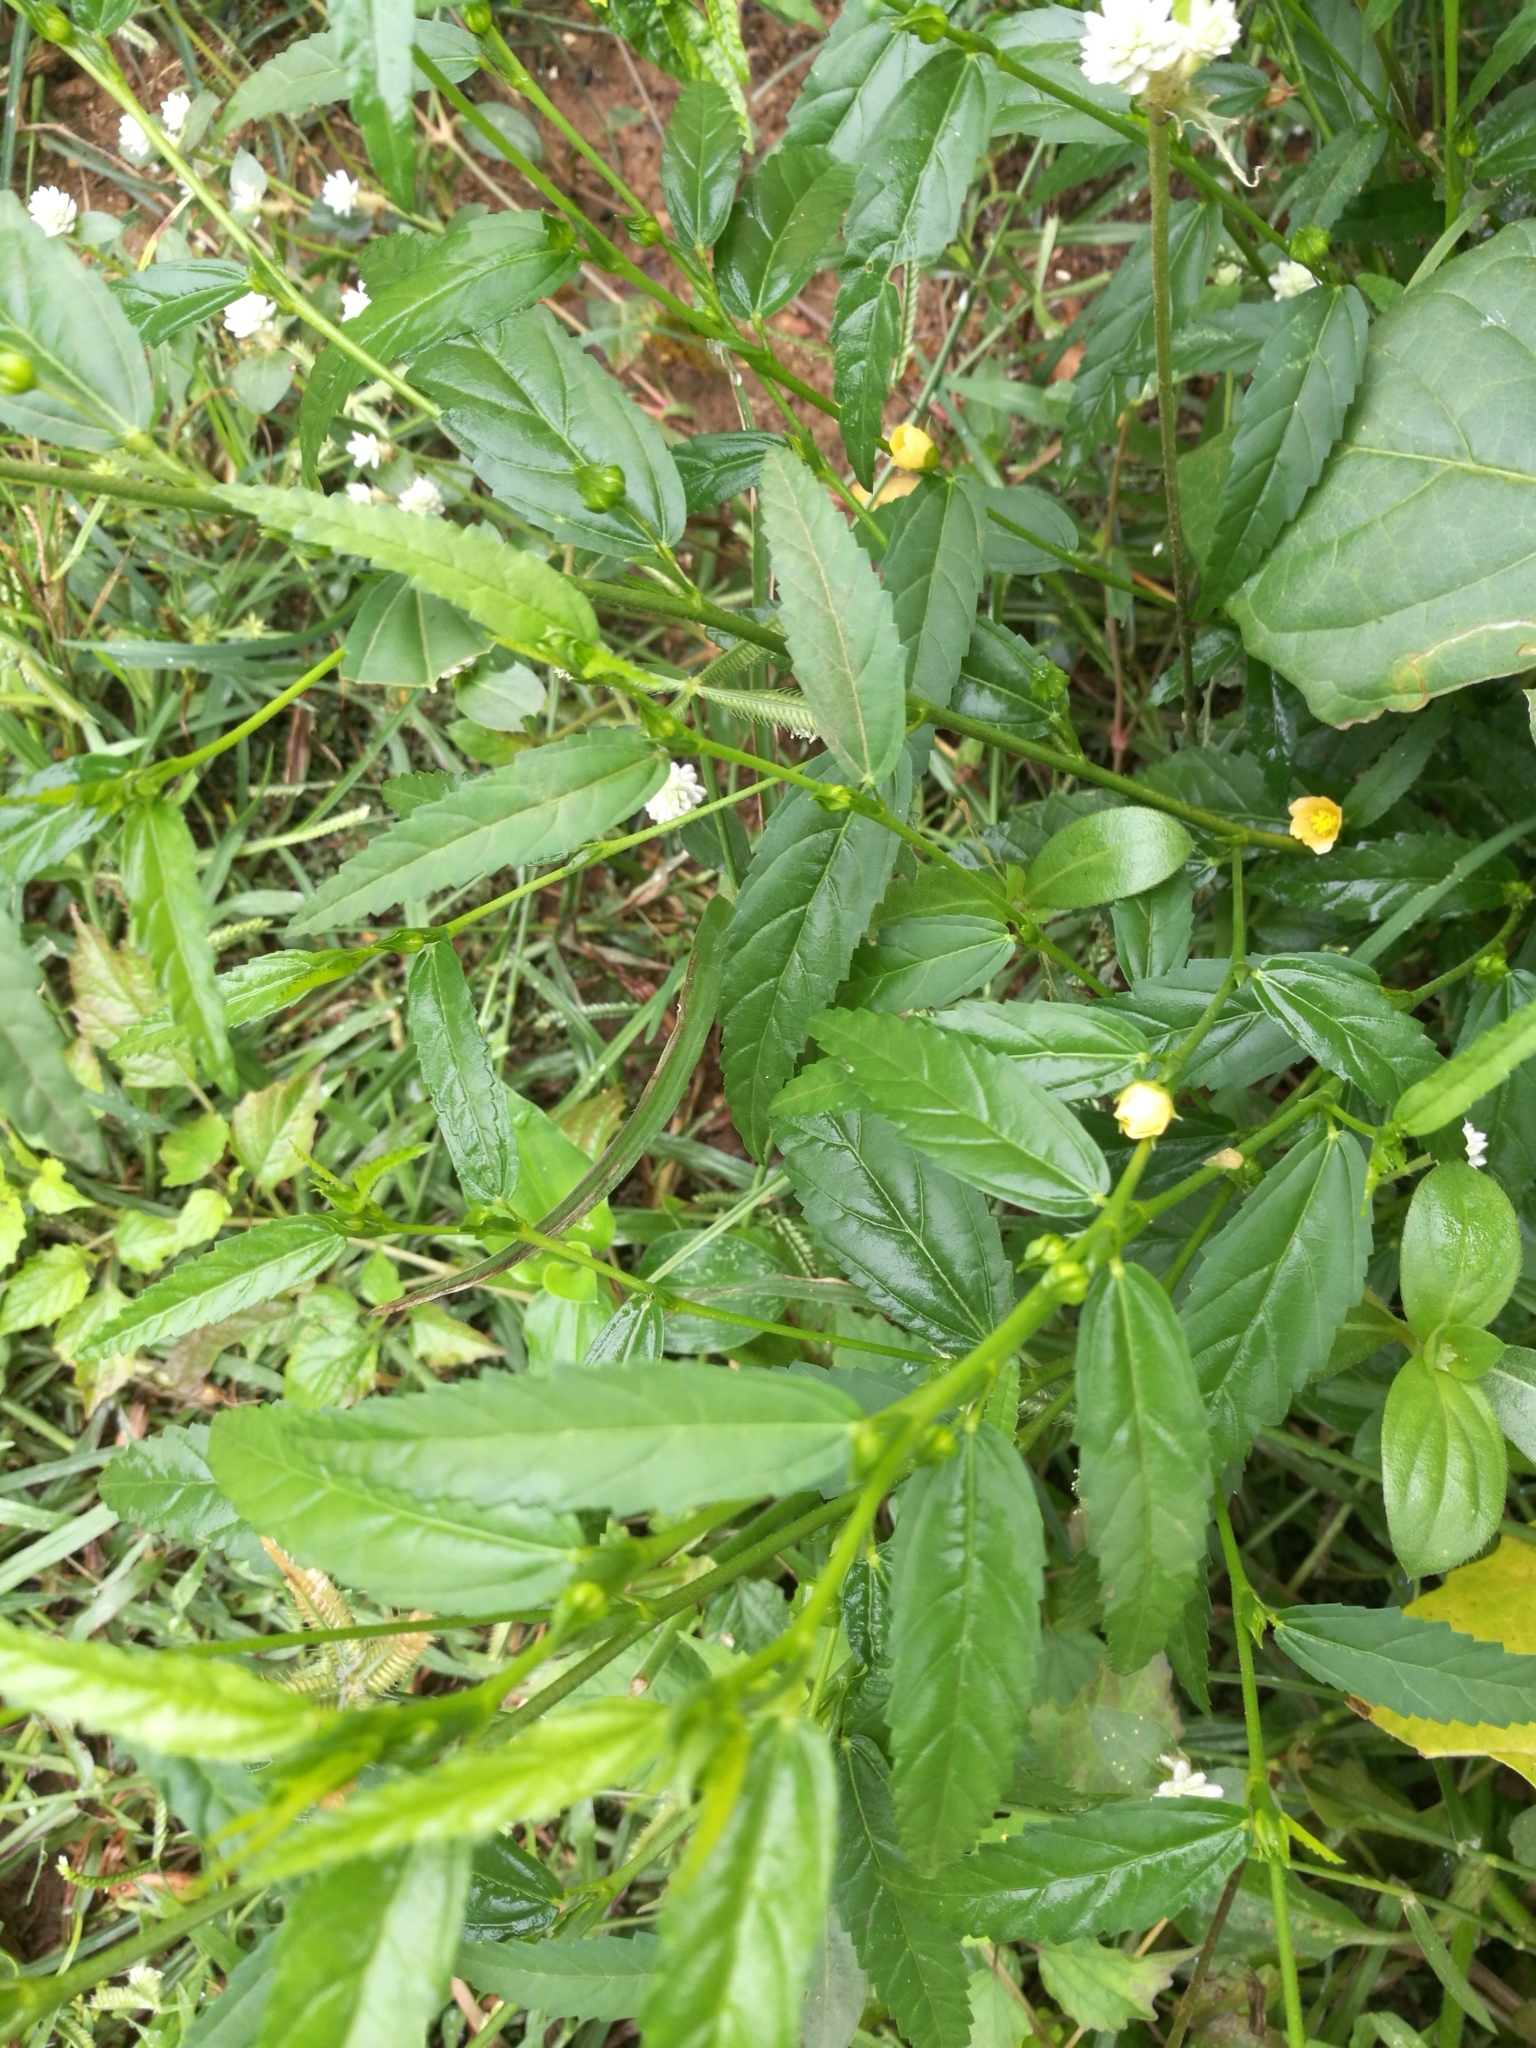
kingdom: Plantae
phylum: Tracheophyta
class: Magnoliopsida
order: Malvales
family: Malvaceae
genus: Sida
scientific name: Sida acuta
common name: Common wireweed
